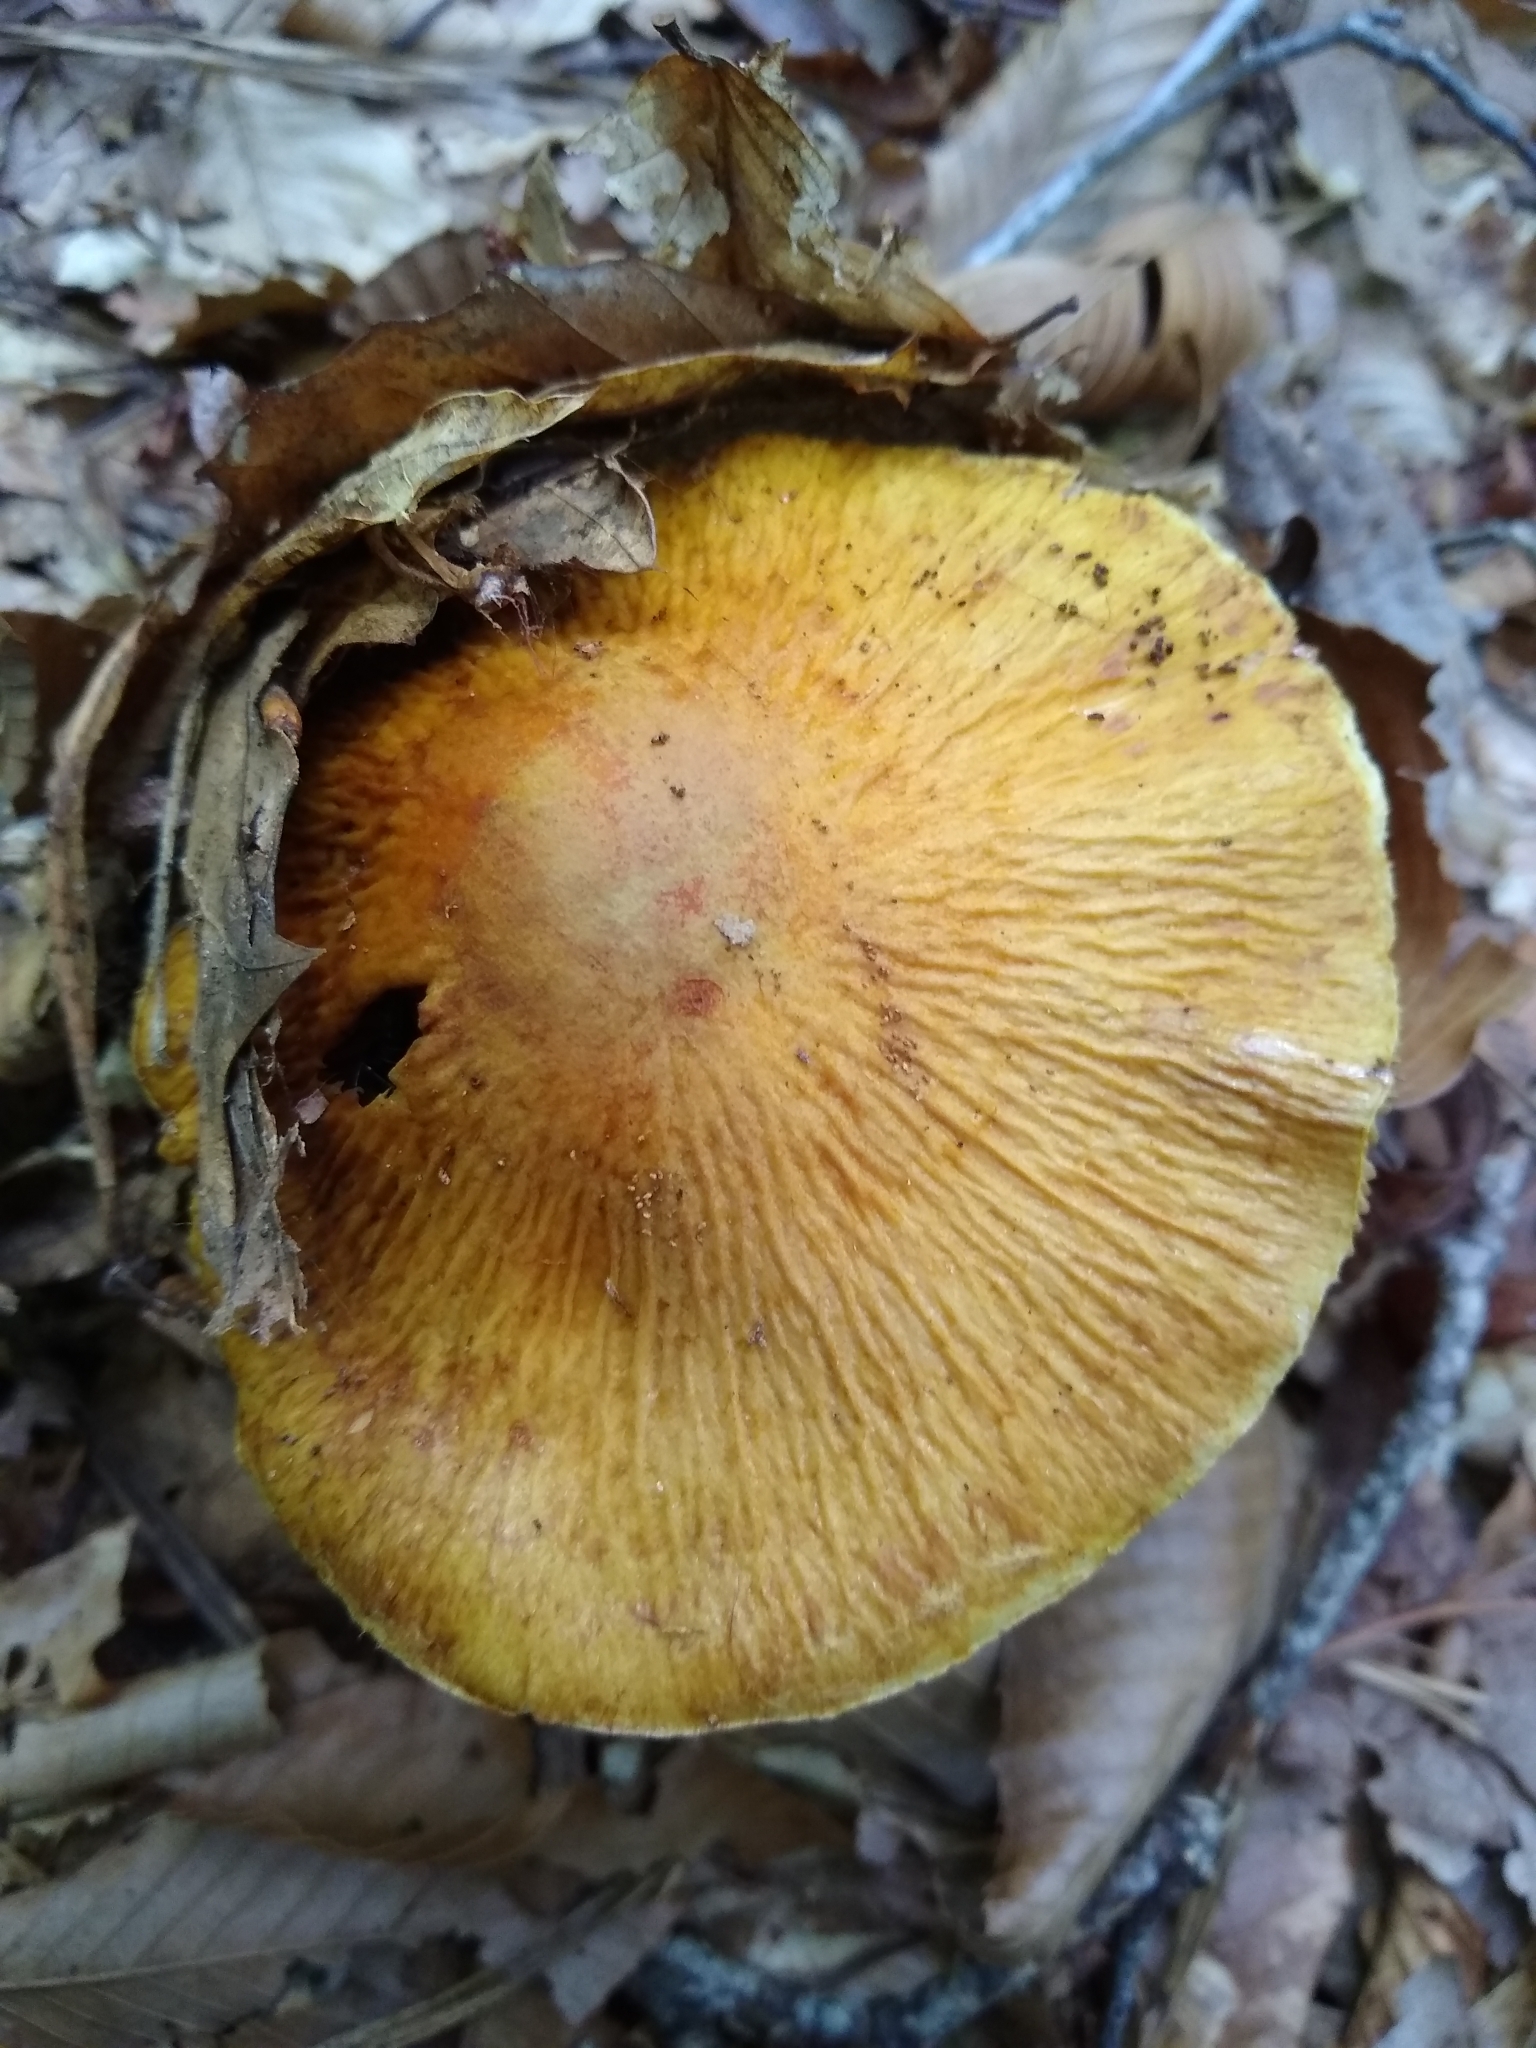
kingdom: Fungi
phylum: Basidiomycota
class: Agaricomycetes
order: Agaricales
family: Cortinariaceae
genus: Cortinarius
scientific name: Cortinarius corrugatus
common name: Wrinkled cortinarius
